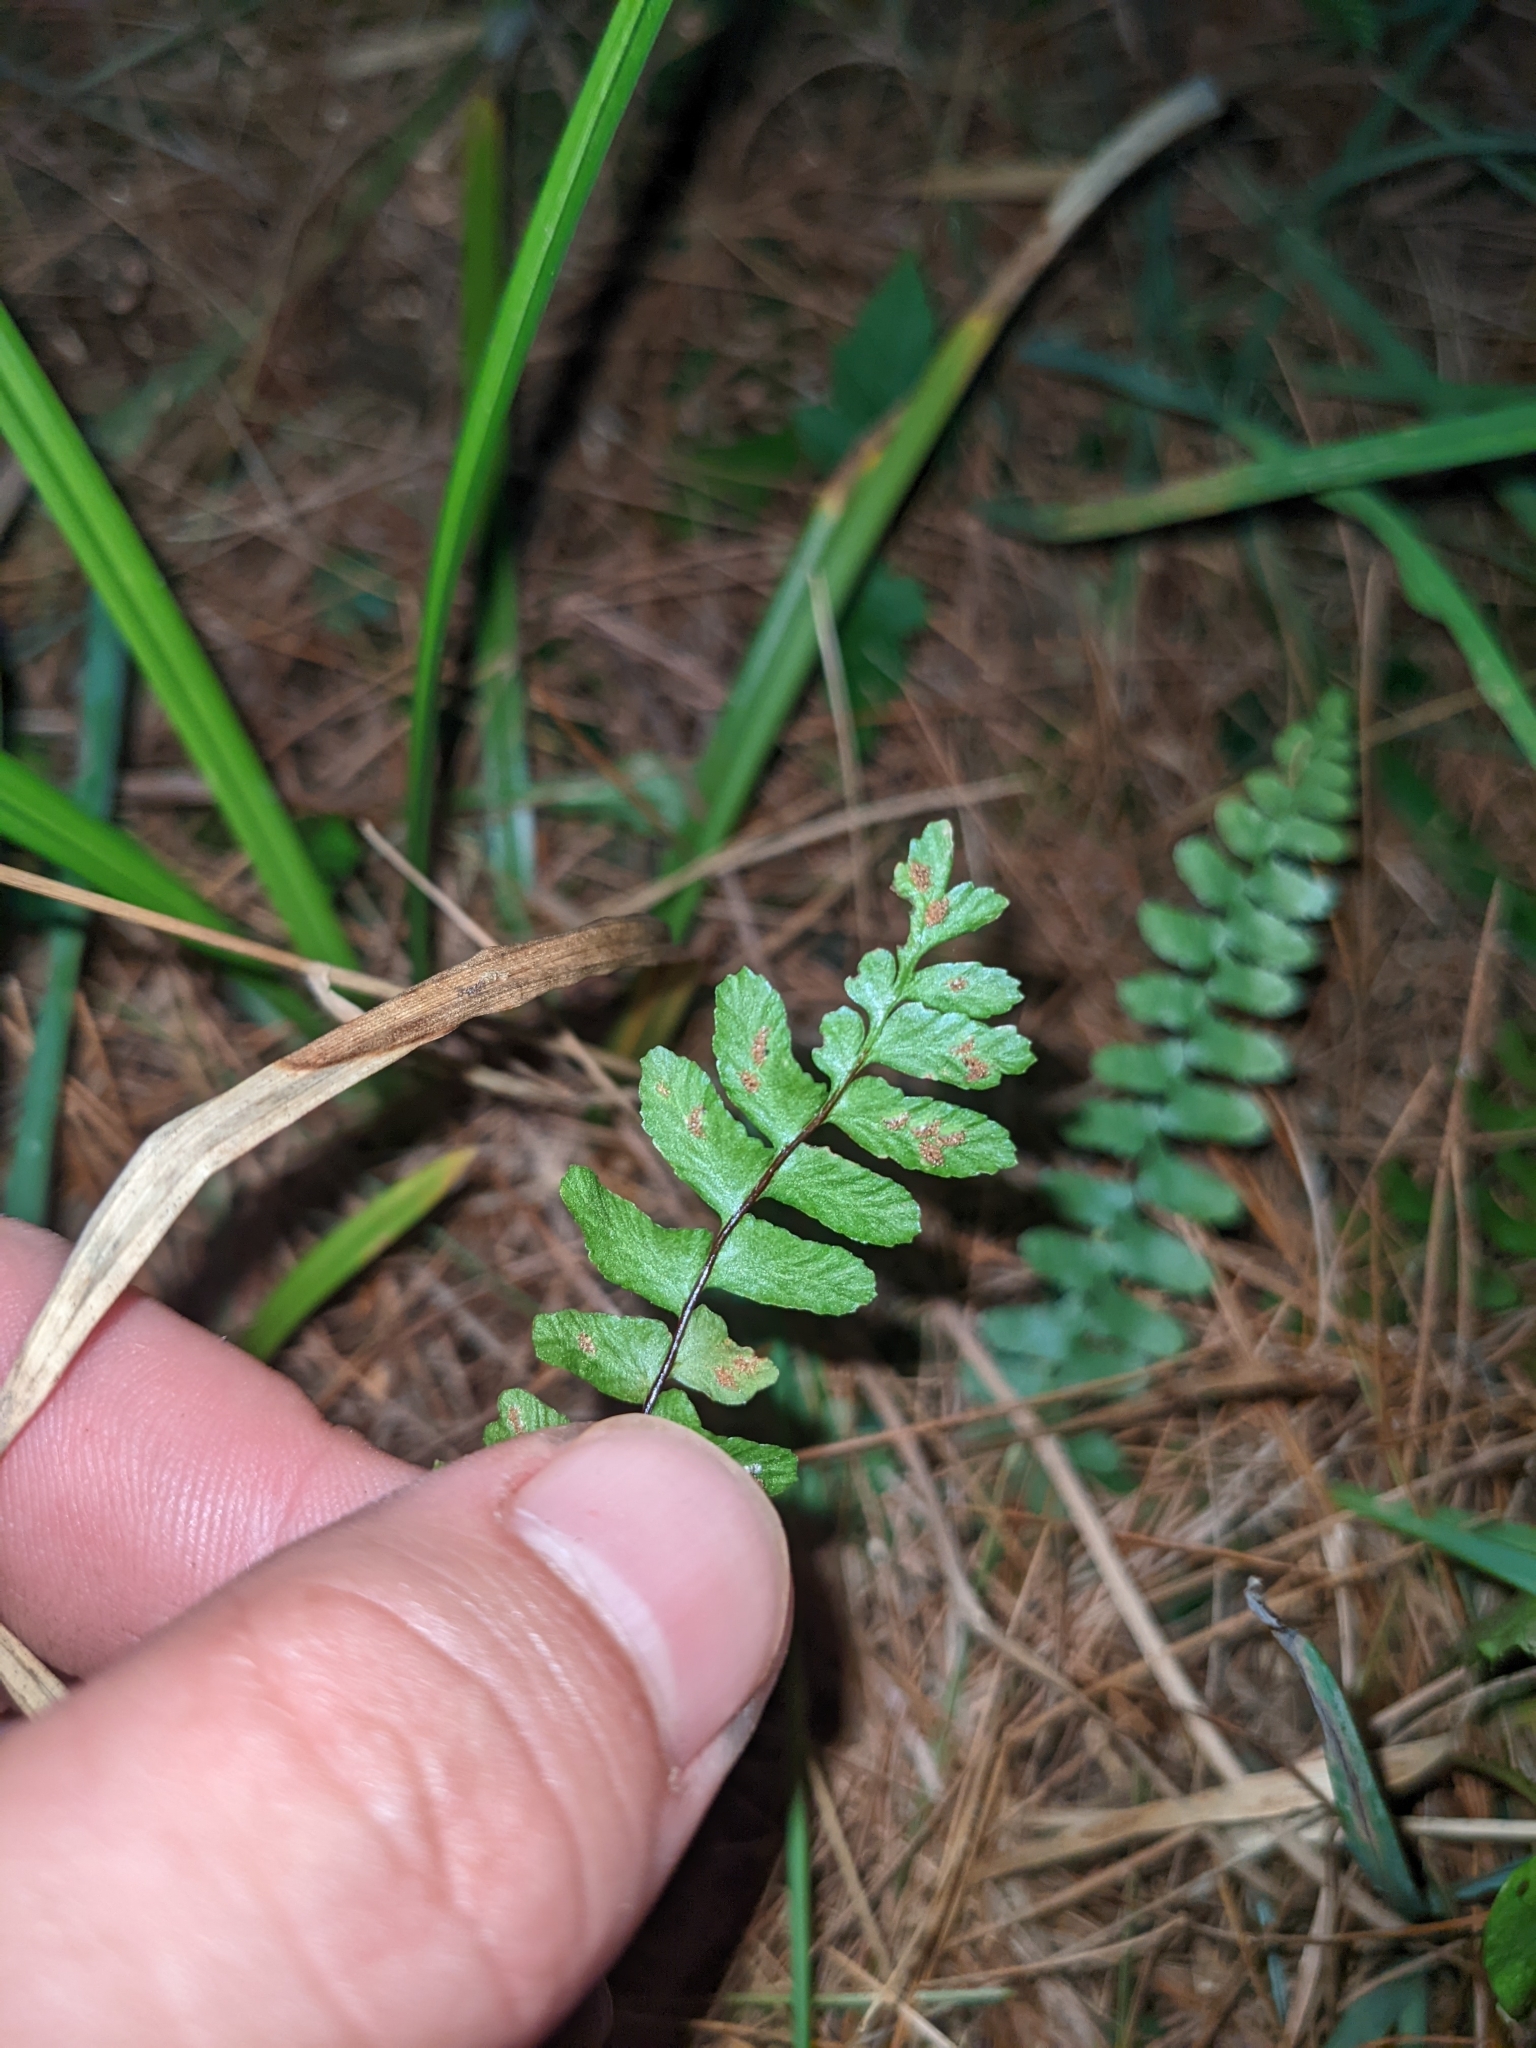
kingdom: Plantae
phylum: Tracheophyta
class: Polypodiopsida
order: Polypodiales
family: Aspleniaceae
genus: Asplenium
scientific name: Asplenium platyneuron
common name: Ebony spleenwort
